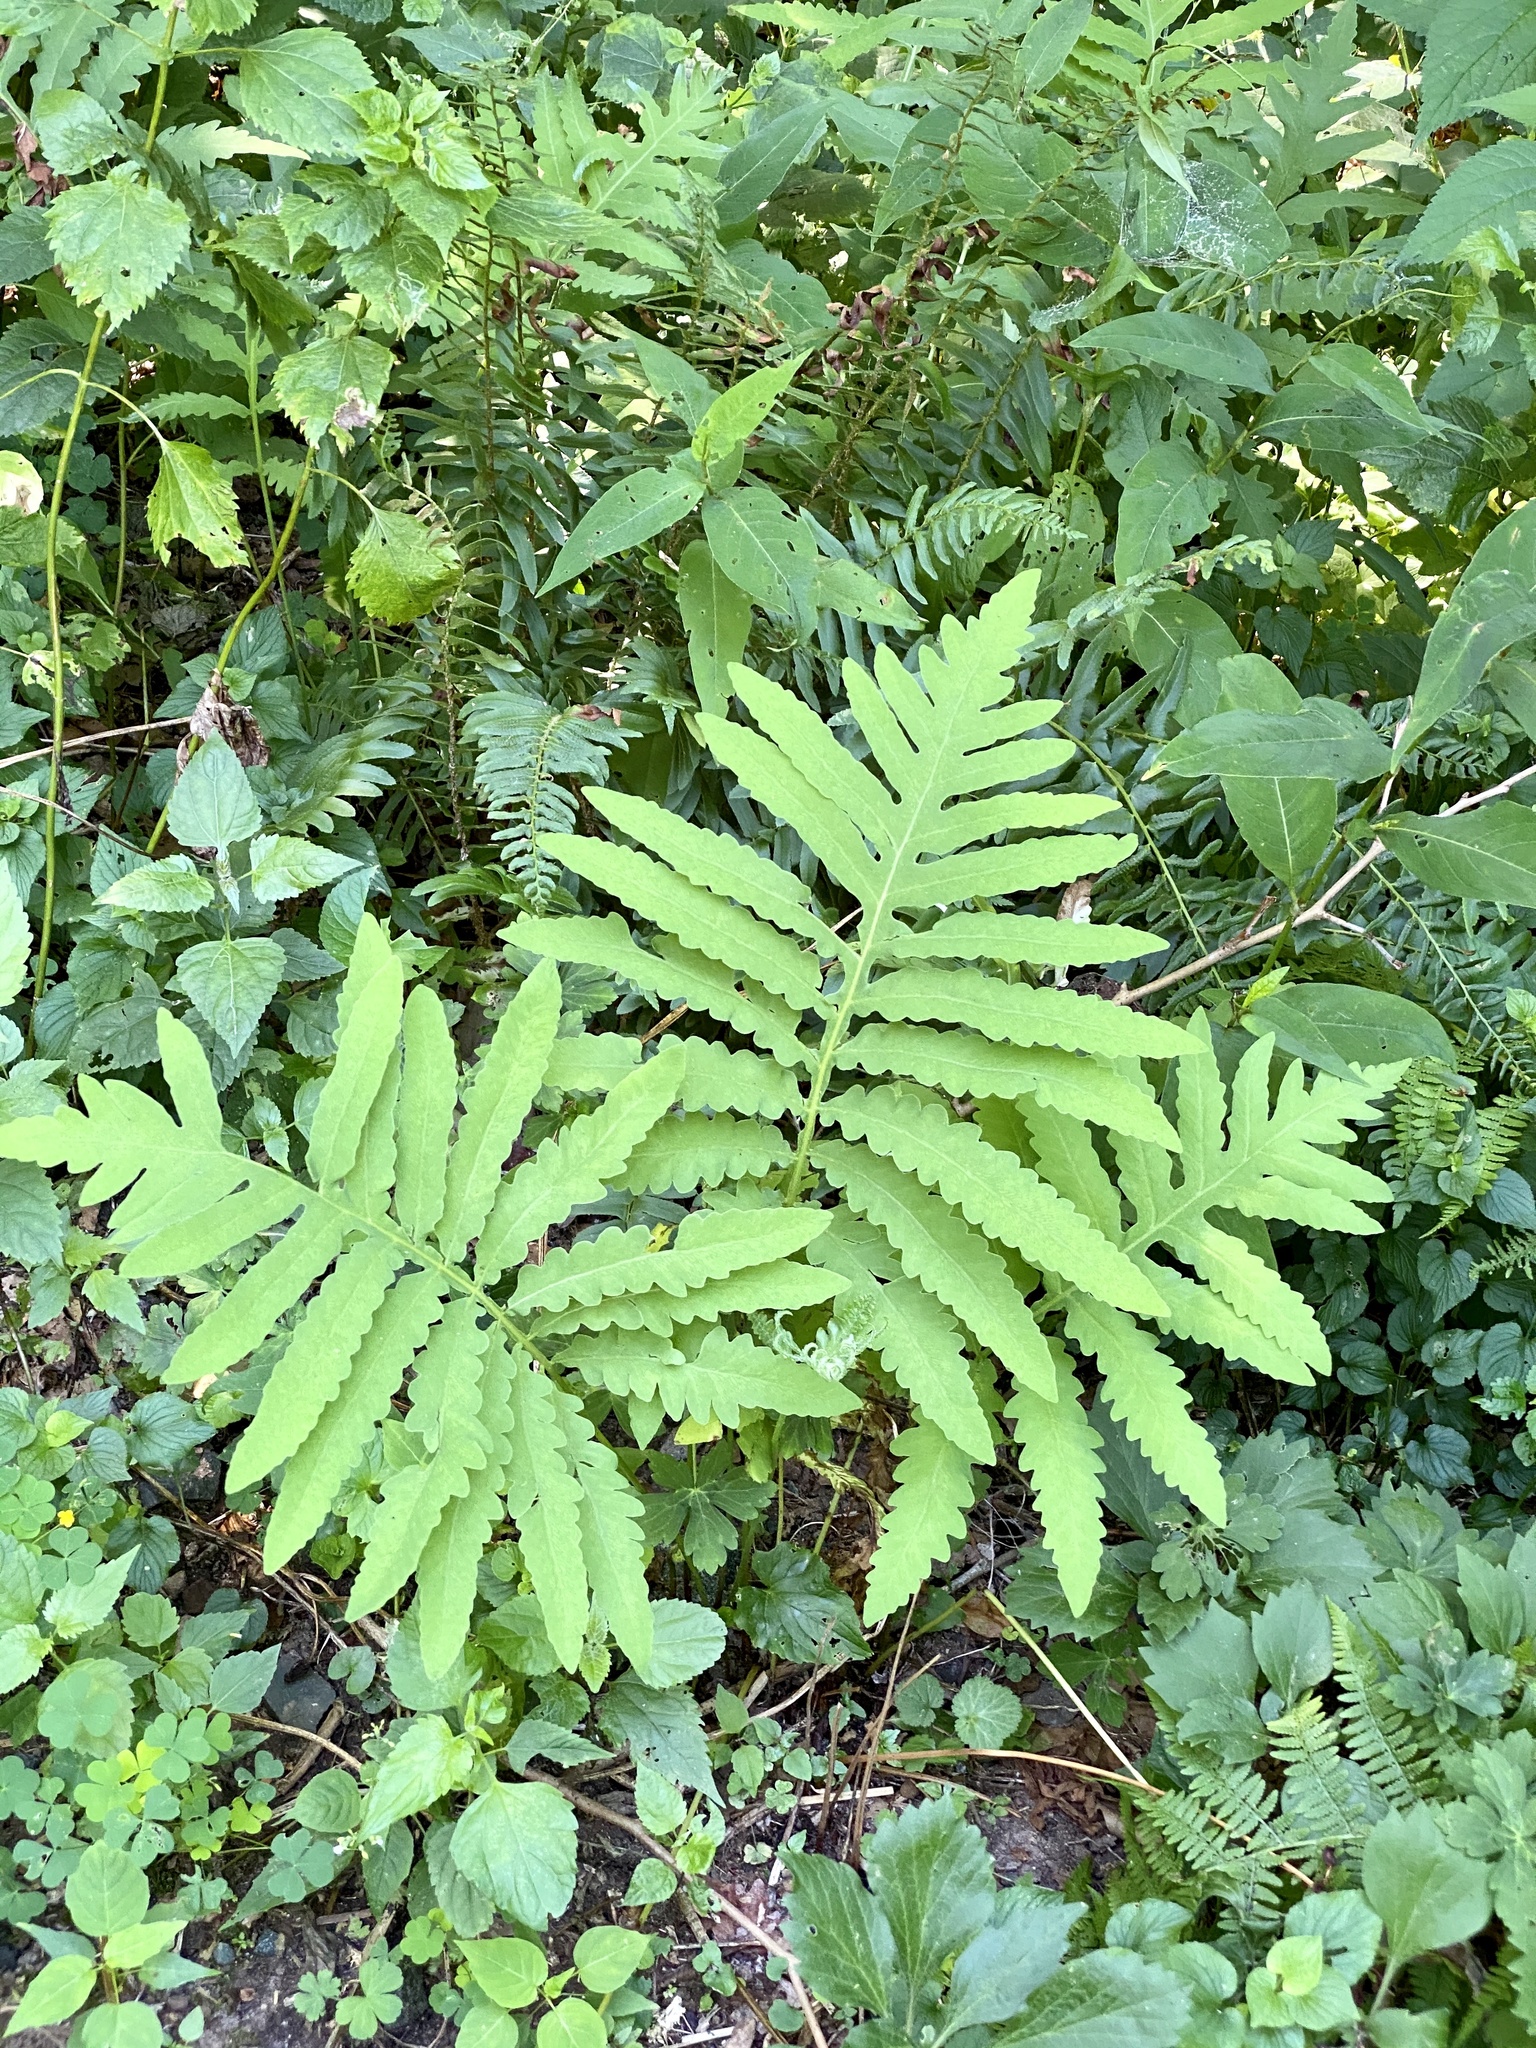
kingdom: Plantae
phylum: Tracheophyta
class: Polypodiopsida
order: Polypodiales
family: Onocleaceae
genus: Onoclea
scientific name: Onoclea sensibilis
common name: Sensitive fern
